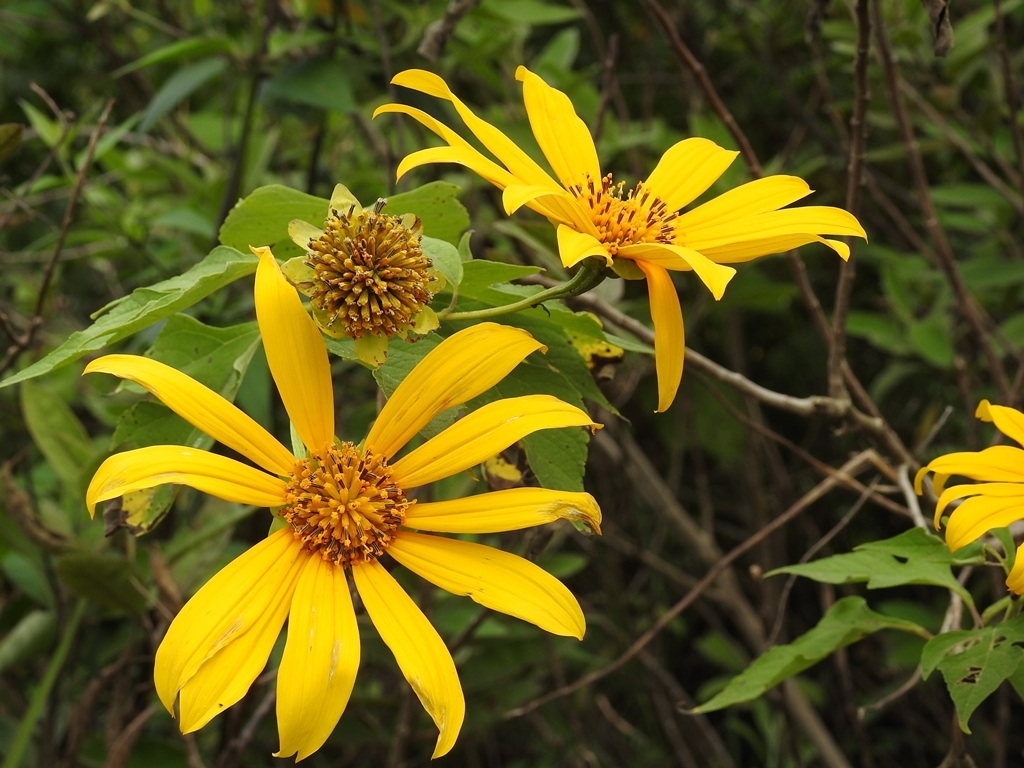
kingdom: Plantae
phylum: Tracheophyta
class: Magnoliopsida
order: Asterales
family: Asteraceae
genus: Tithonia
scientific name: Tithonia diversifolia
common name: Tree marigold
